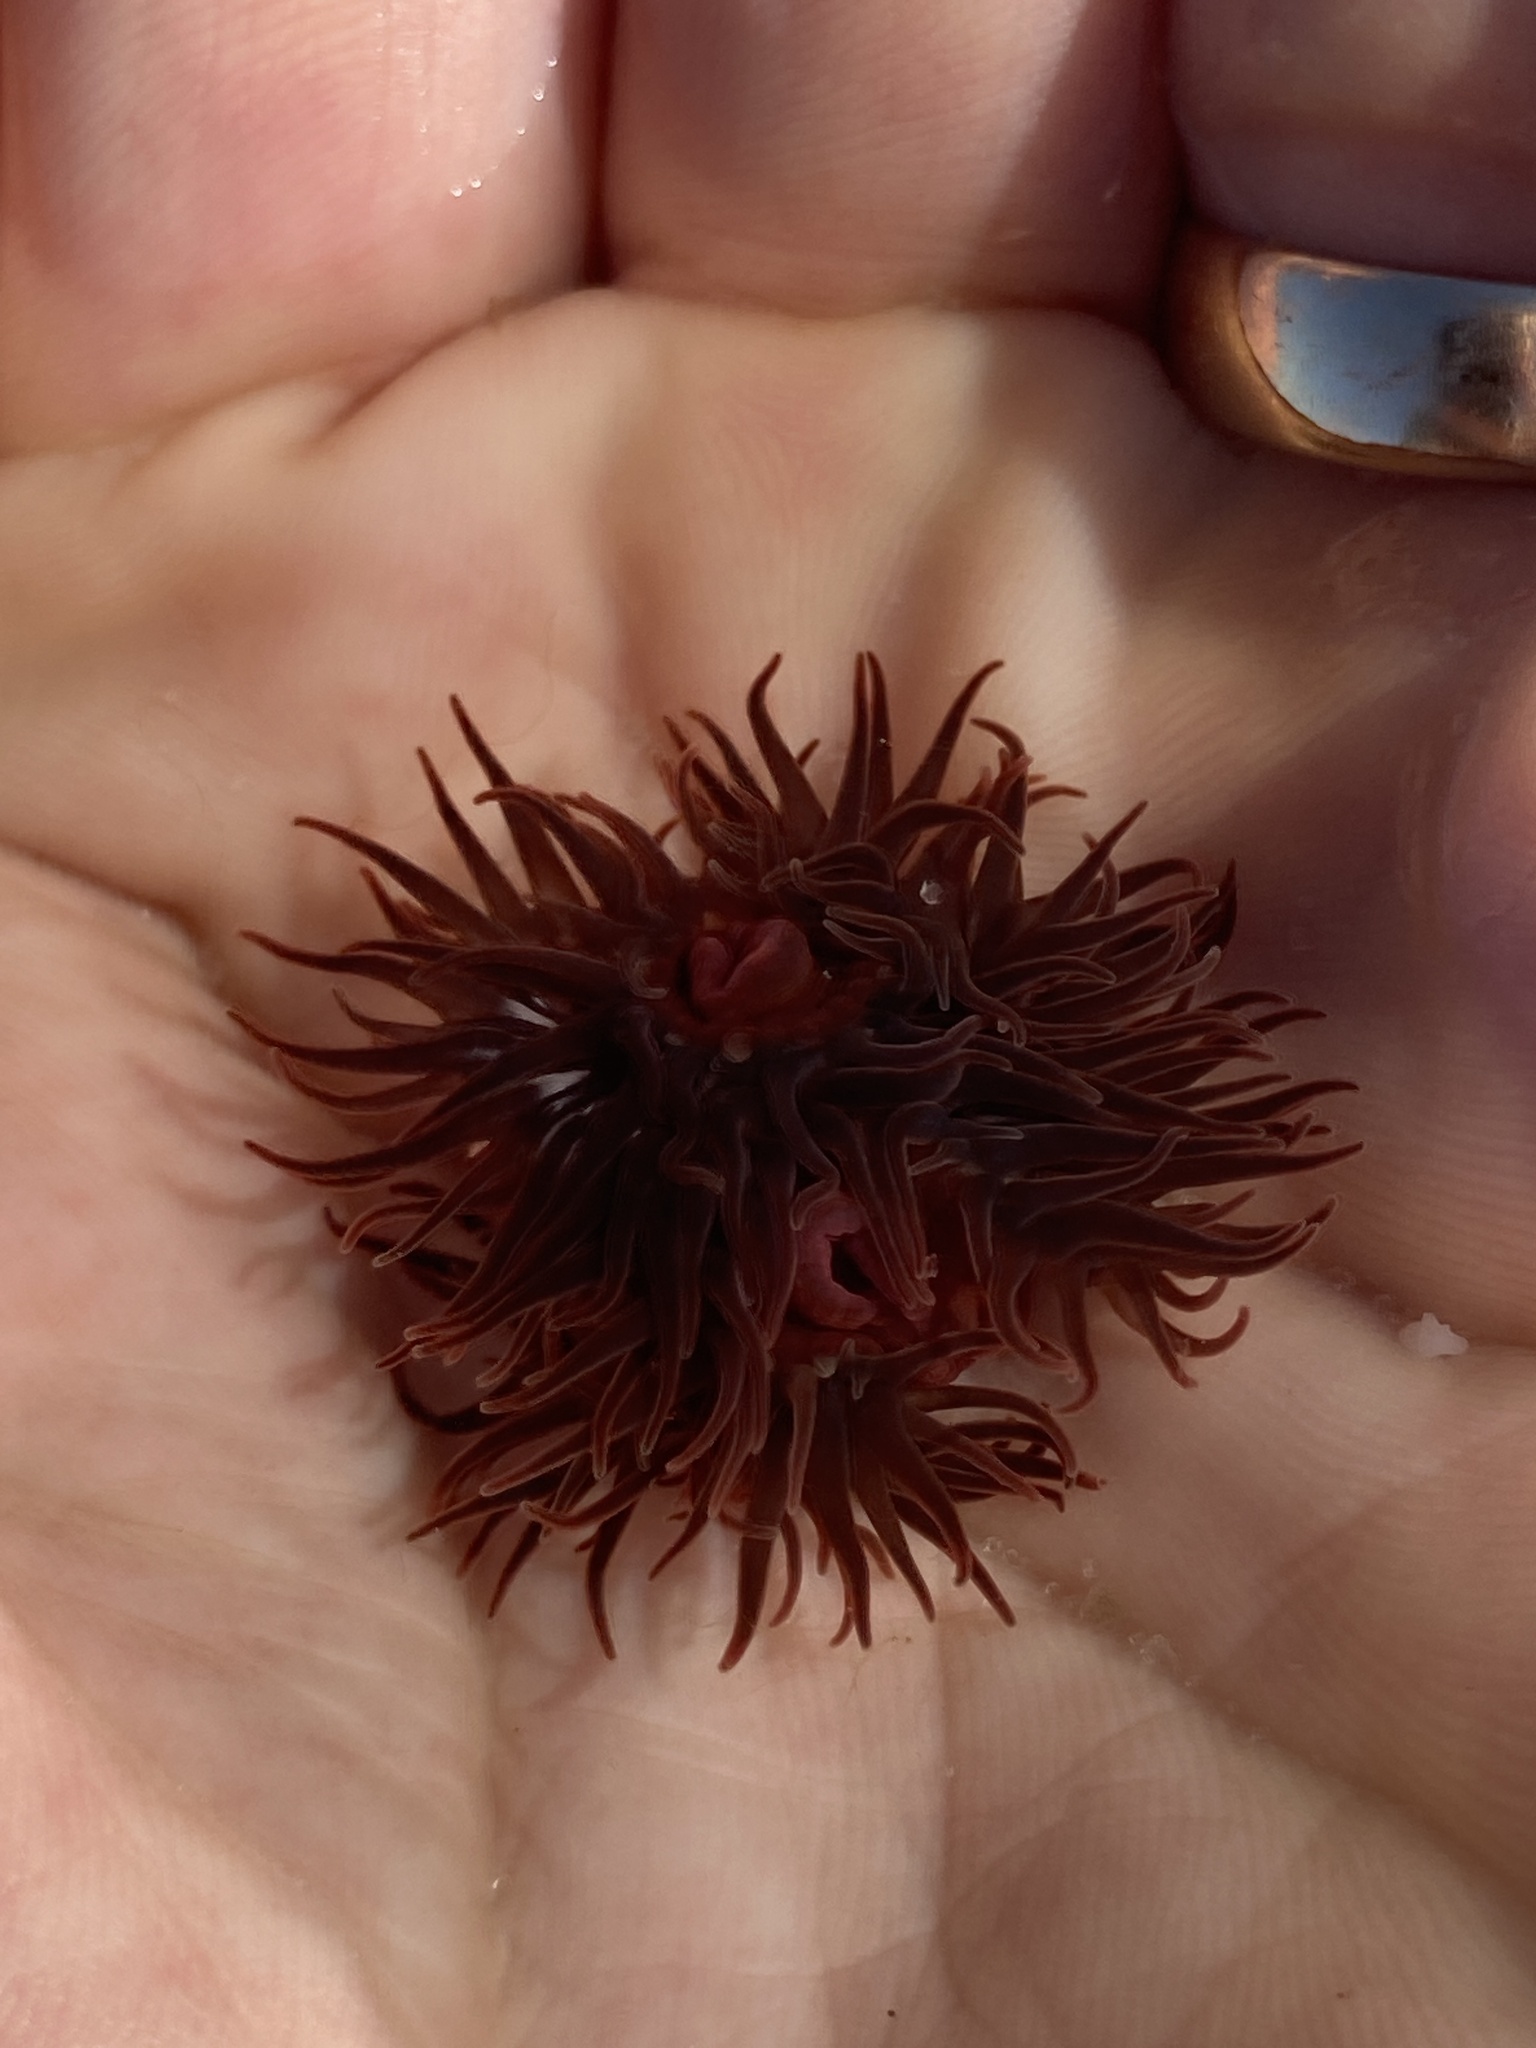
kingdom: Animalia
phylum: Cnidaria
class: Anthozoa
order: Actiniaria
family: Actiniidae
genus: Anemonia
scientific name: Anemonia sargassensis
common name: Sargassum anemone
